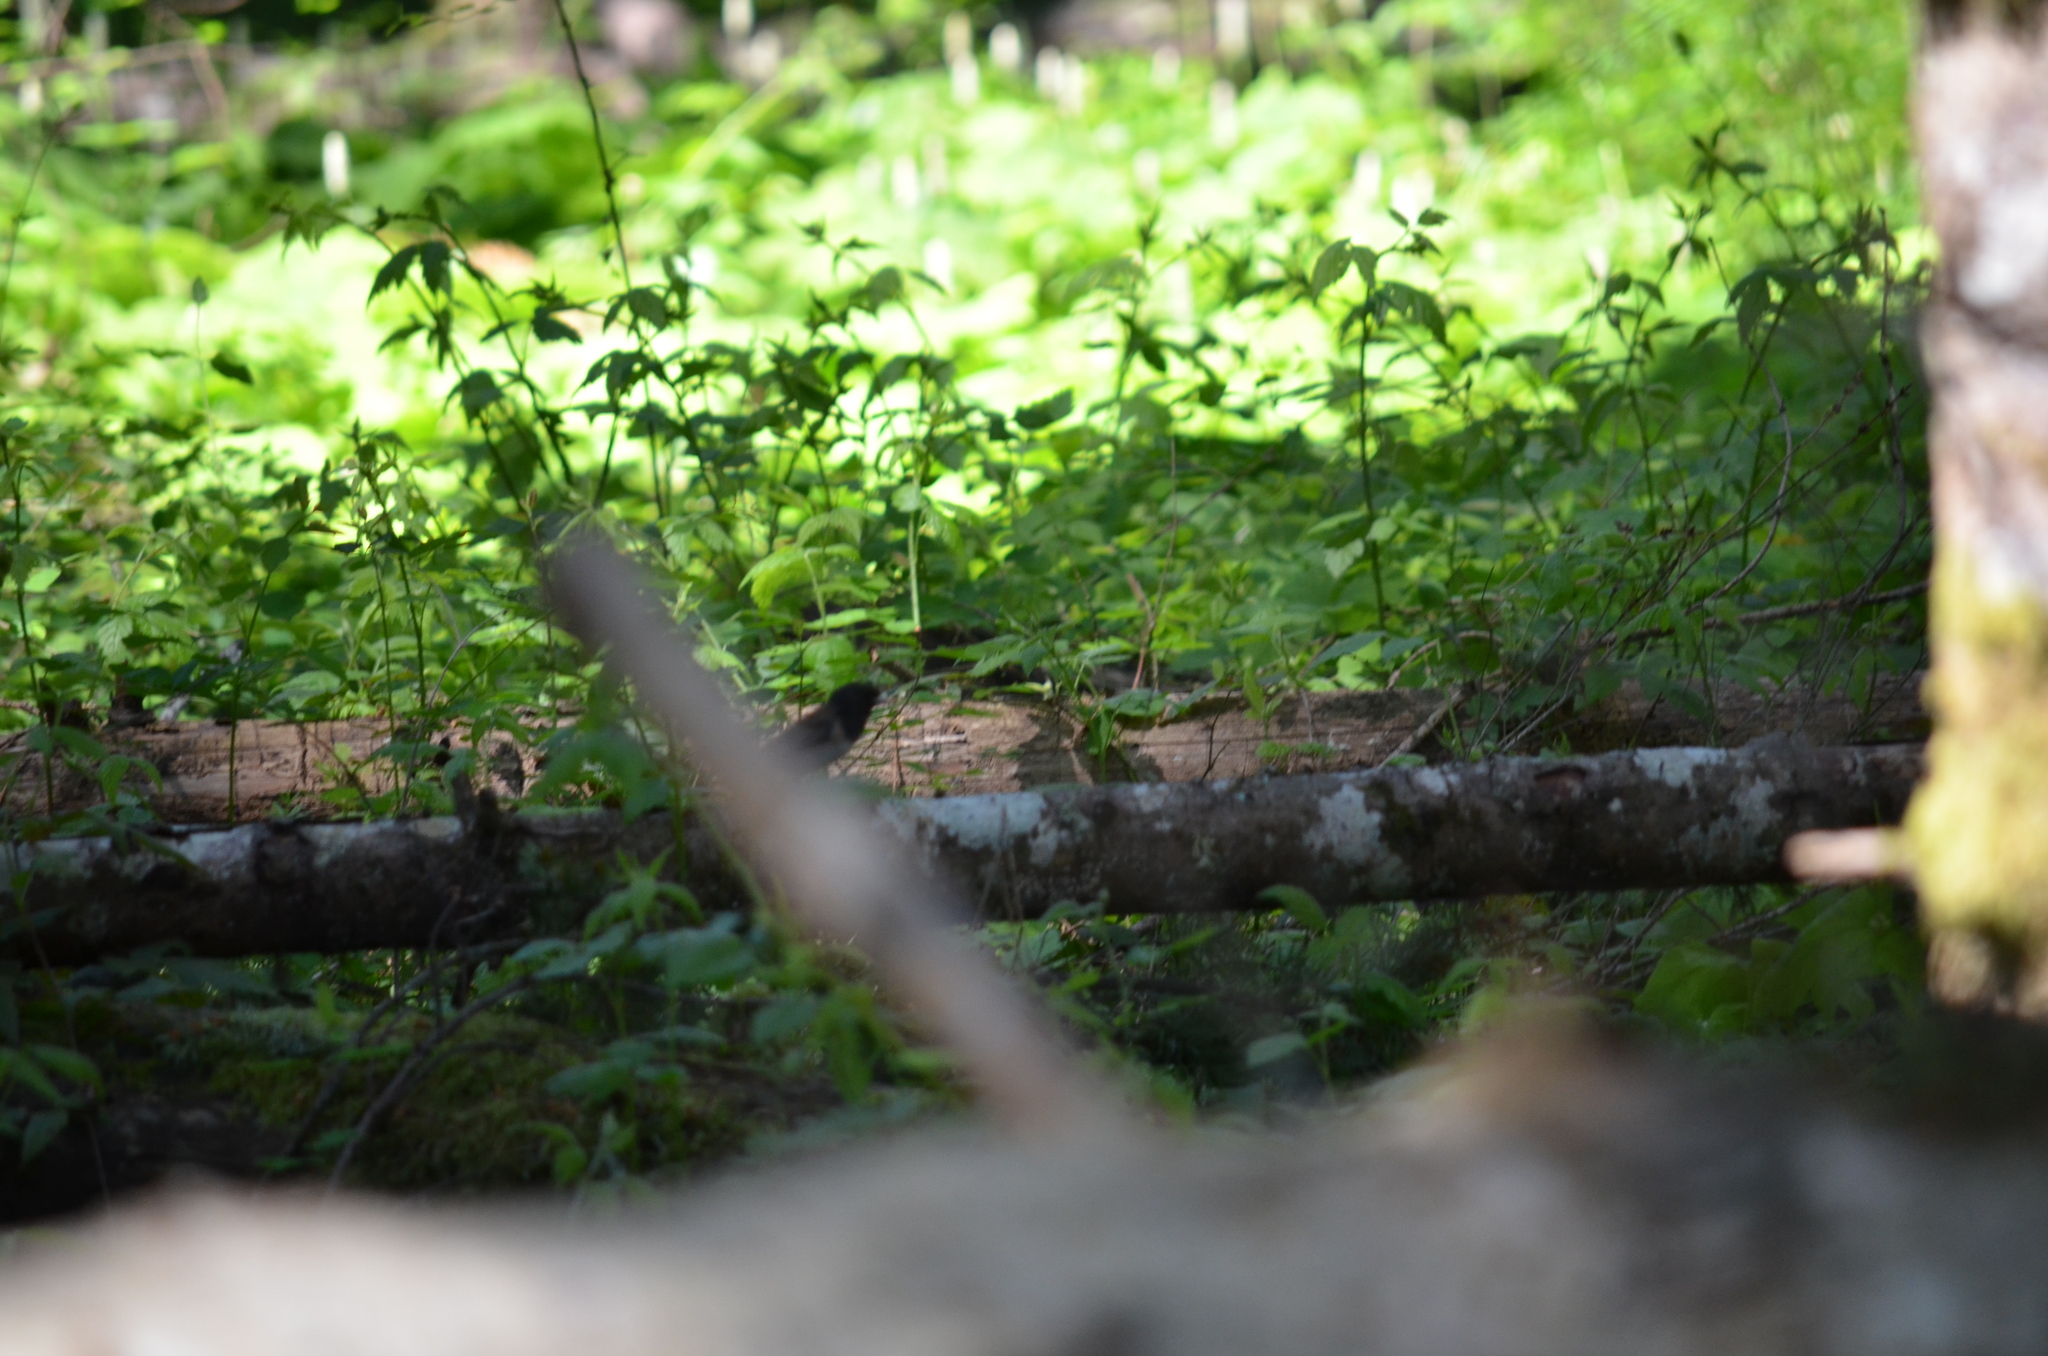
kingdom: Animalia
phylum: Chordata
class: Aves
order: Passeriformes
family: Passerellidae
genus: Junco
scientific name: Junco hyemalis
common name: Dark-eyed junco
